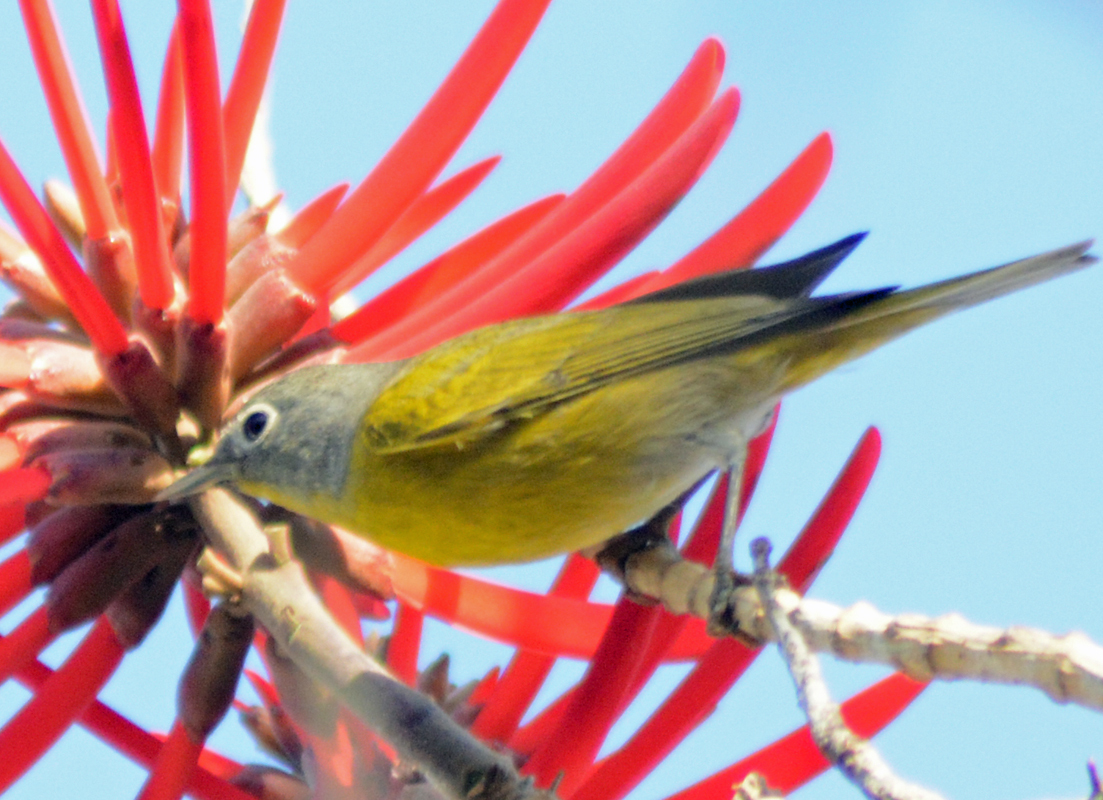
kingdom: Animalia
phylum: Chordata
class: Aves
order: Passeriformes
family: Parulidae
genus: Leiothlypis
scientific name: Leiothlypis ruficapilla
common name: Nashville warbler
